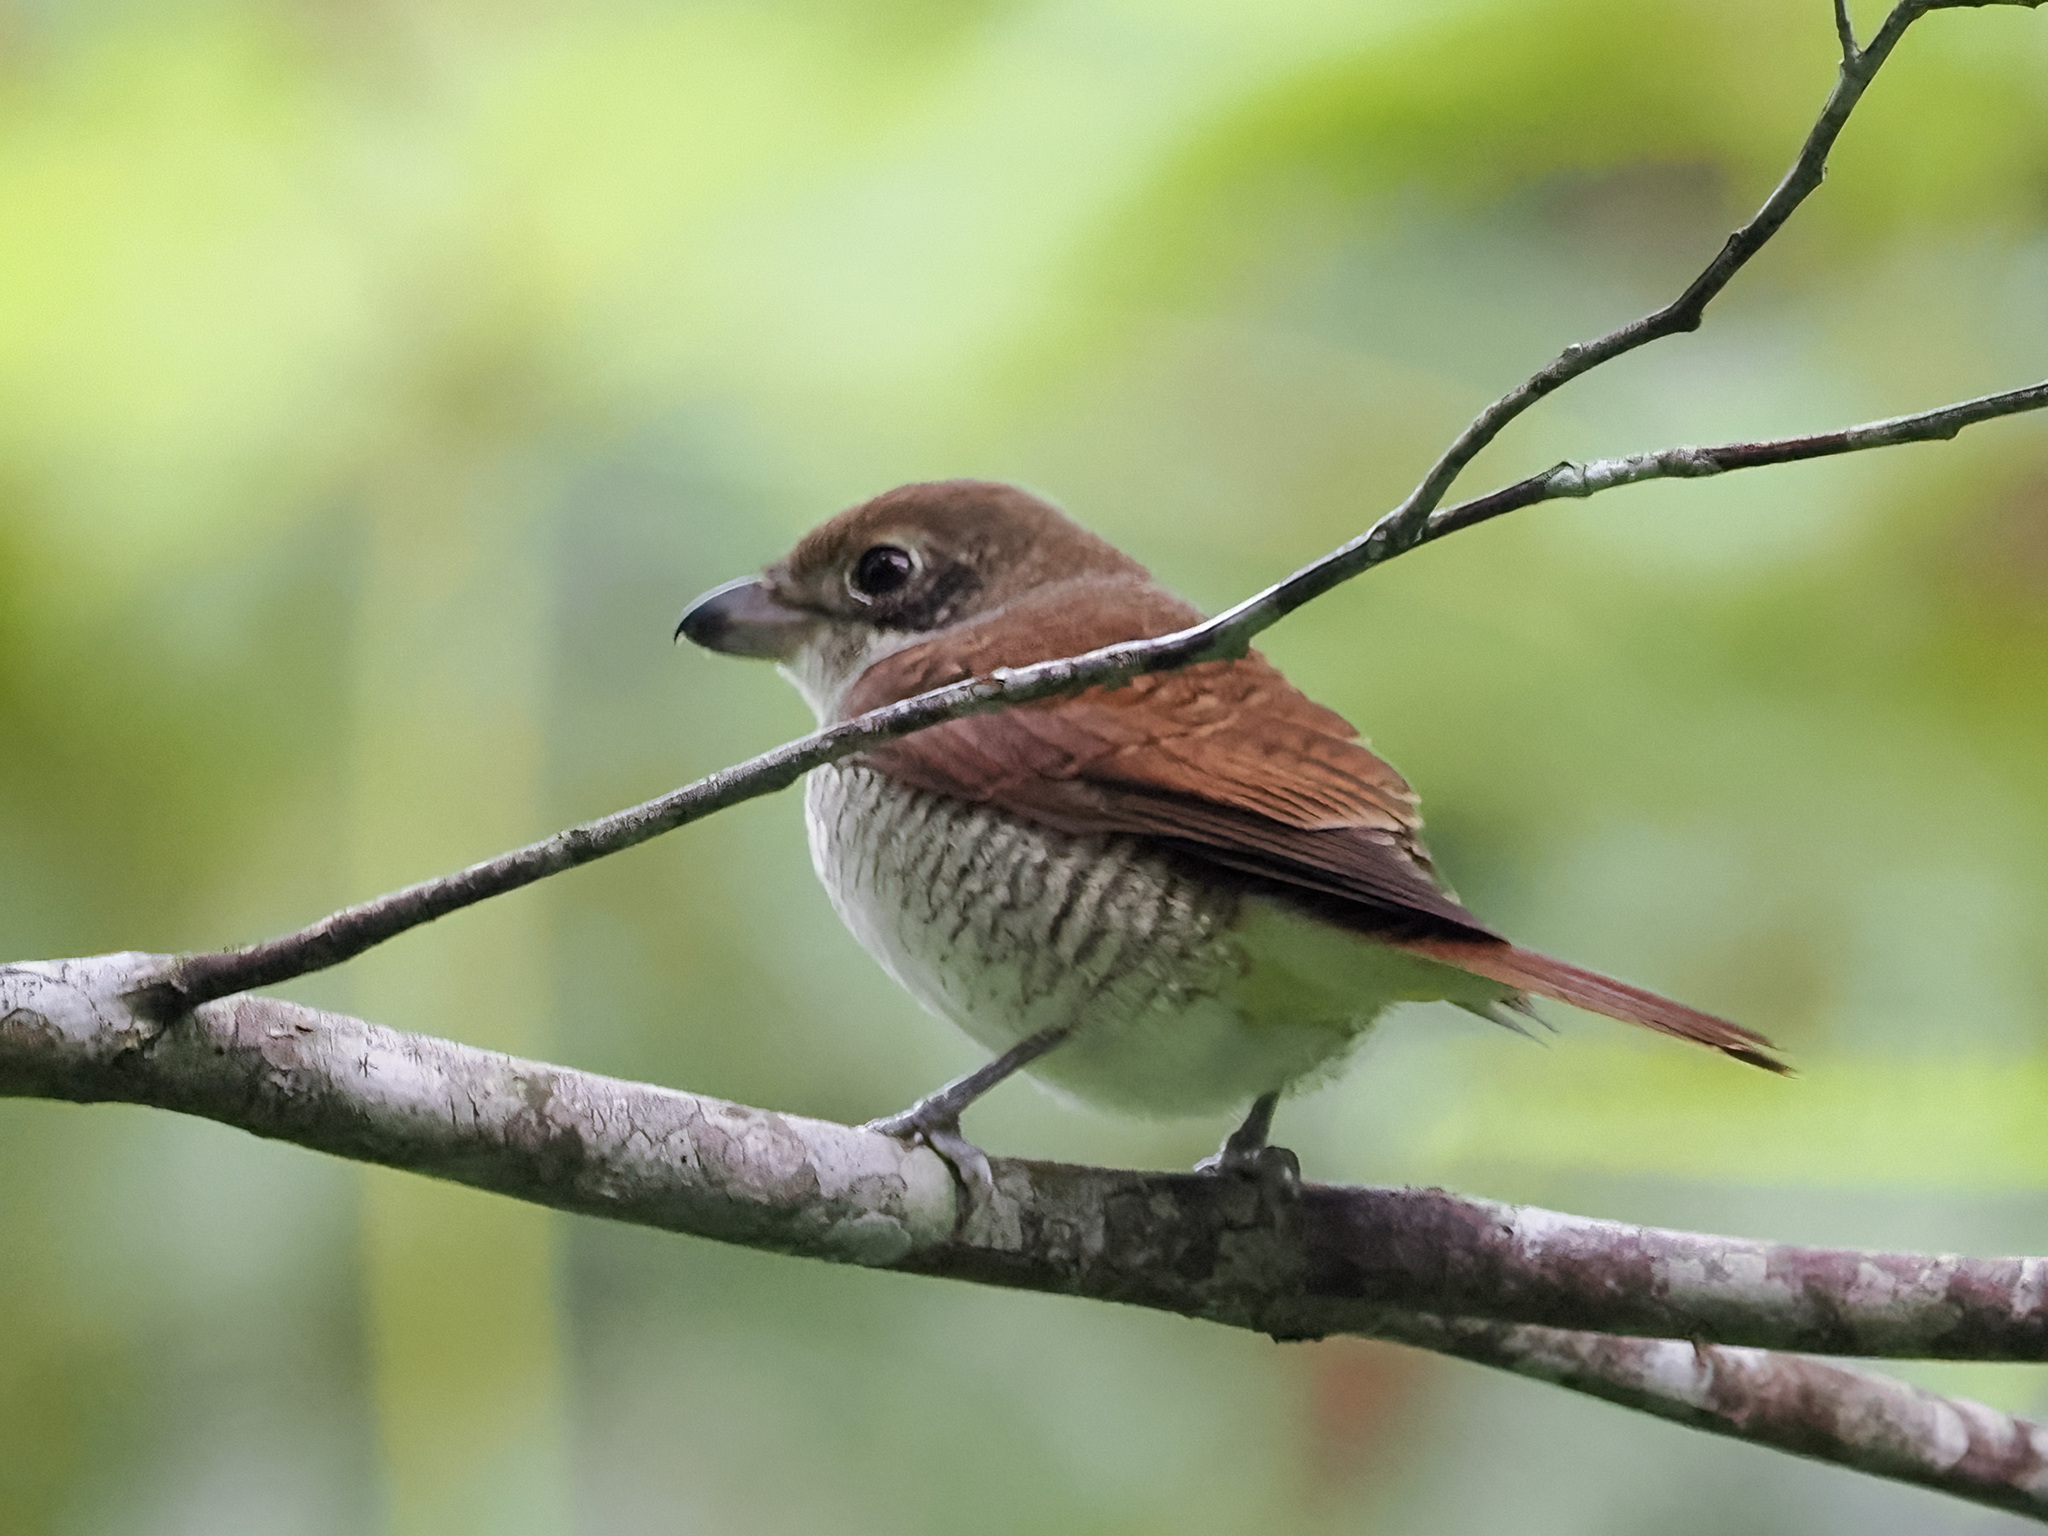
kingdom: Animalia
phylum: Chordata
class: Aves
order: Passeriformes
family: Laniidae
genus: Lanius
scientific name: Lanius tigrinus
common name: Tiger shrike
